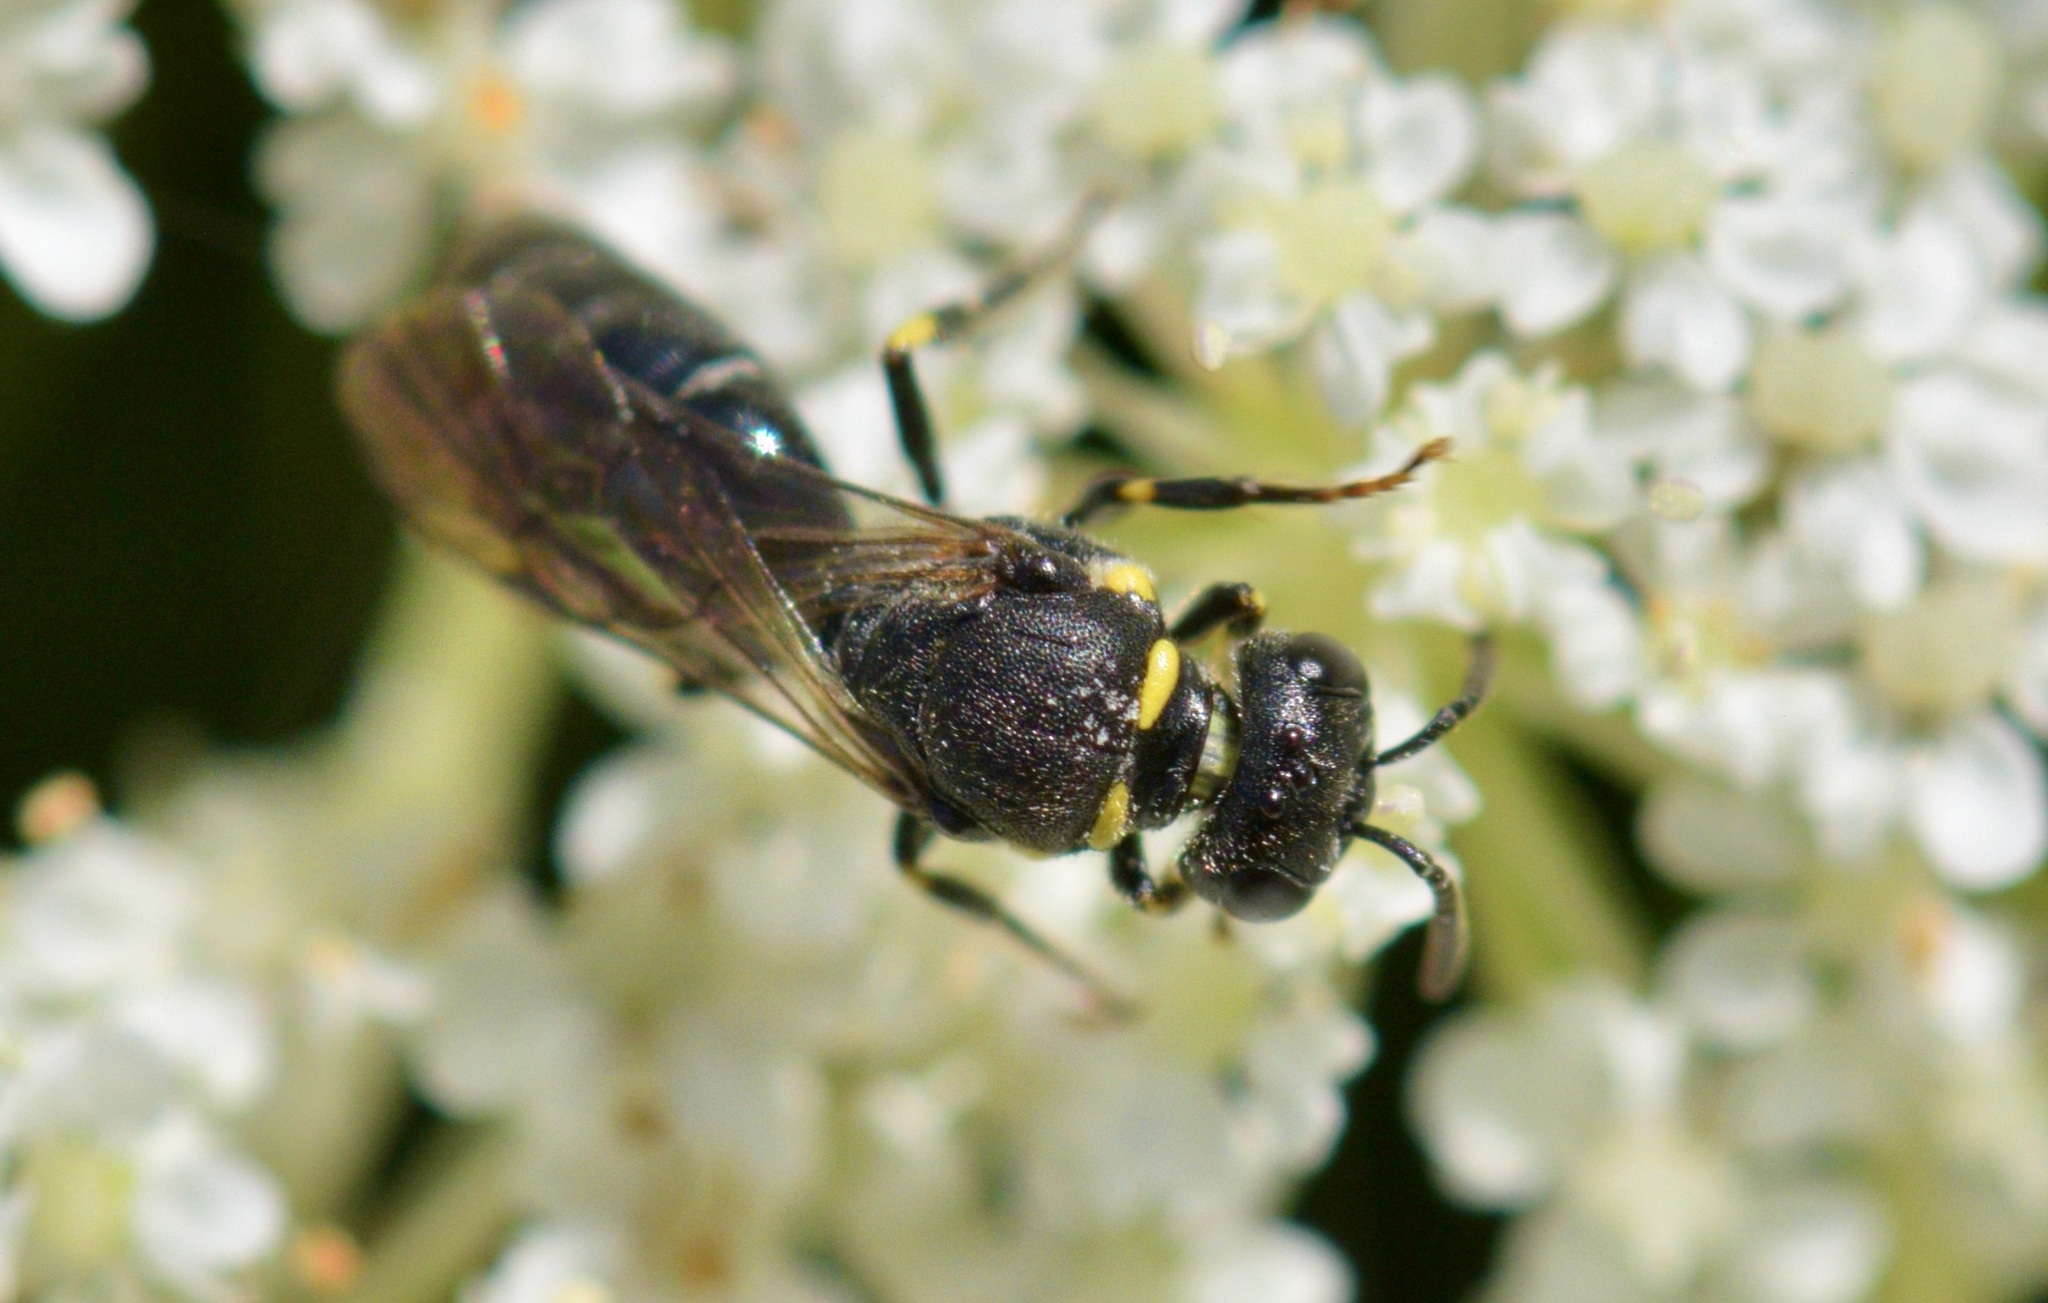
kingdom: Animalia
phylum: Arthropoda
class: Insecta
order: Hymenoptera
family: Colletidae
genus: Hylaeus
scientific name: Hylaeus modestus
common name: Yellow-faced bee
